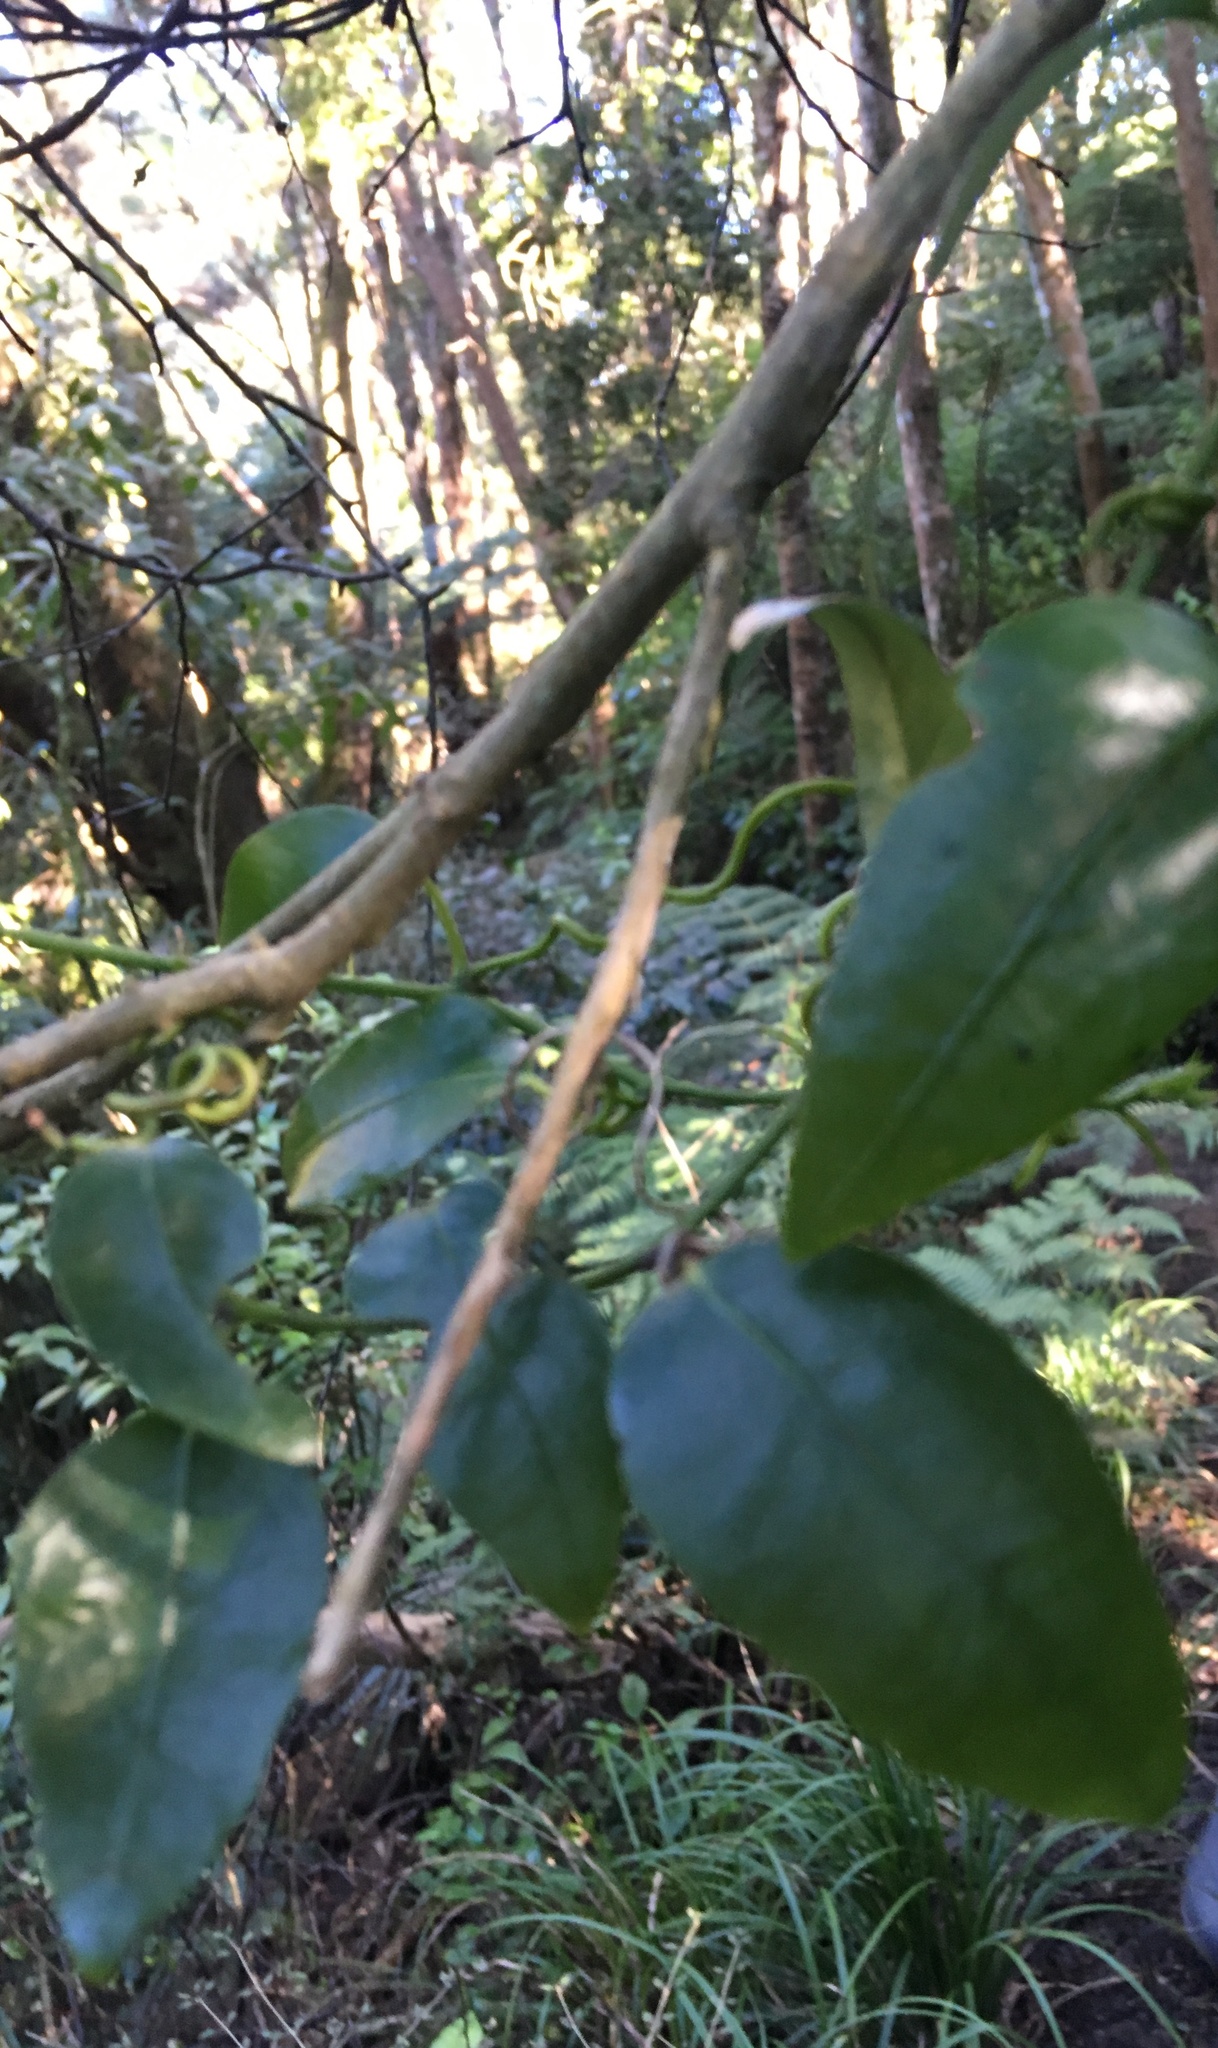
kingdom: Plantae
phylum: Tracheophyta
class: Magnoliopsida
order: Malpighiales
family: Passifloraceae
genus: Passiflora
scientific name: Passiflora tetrandra
